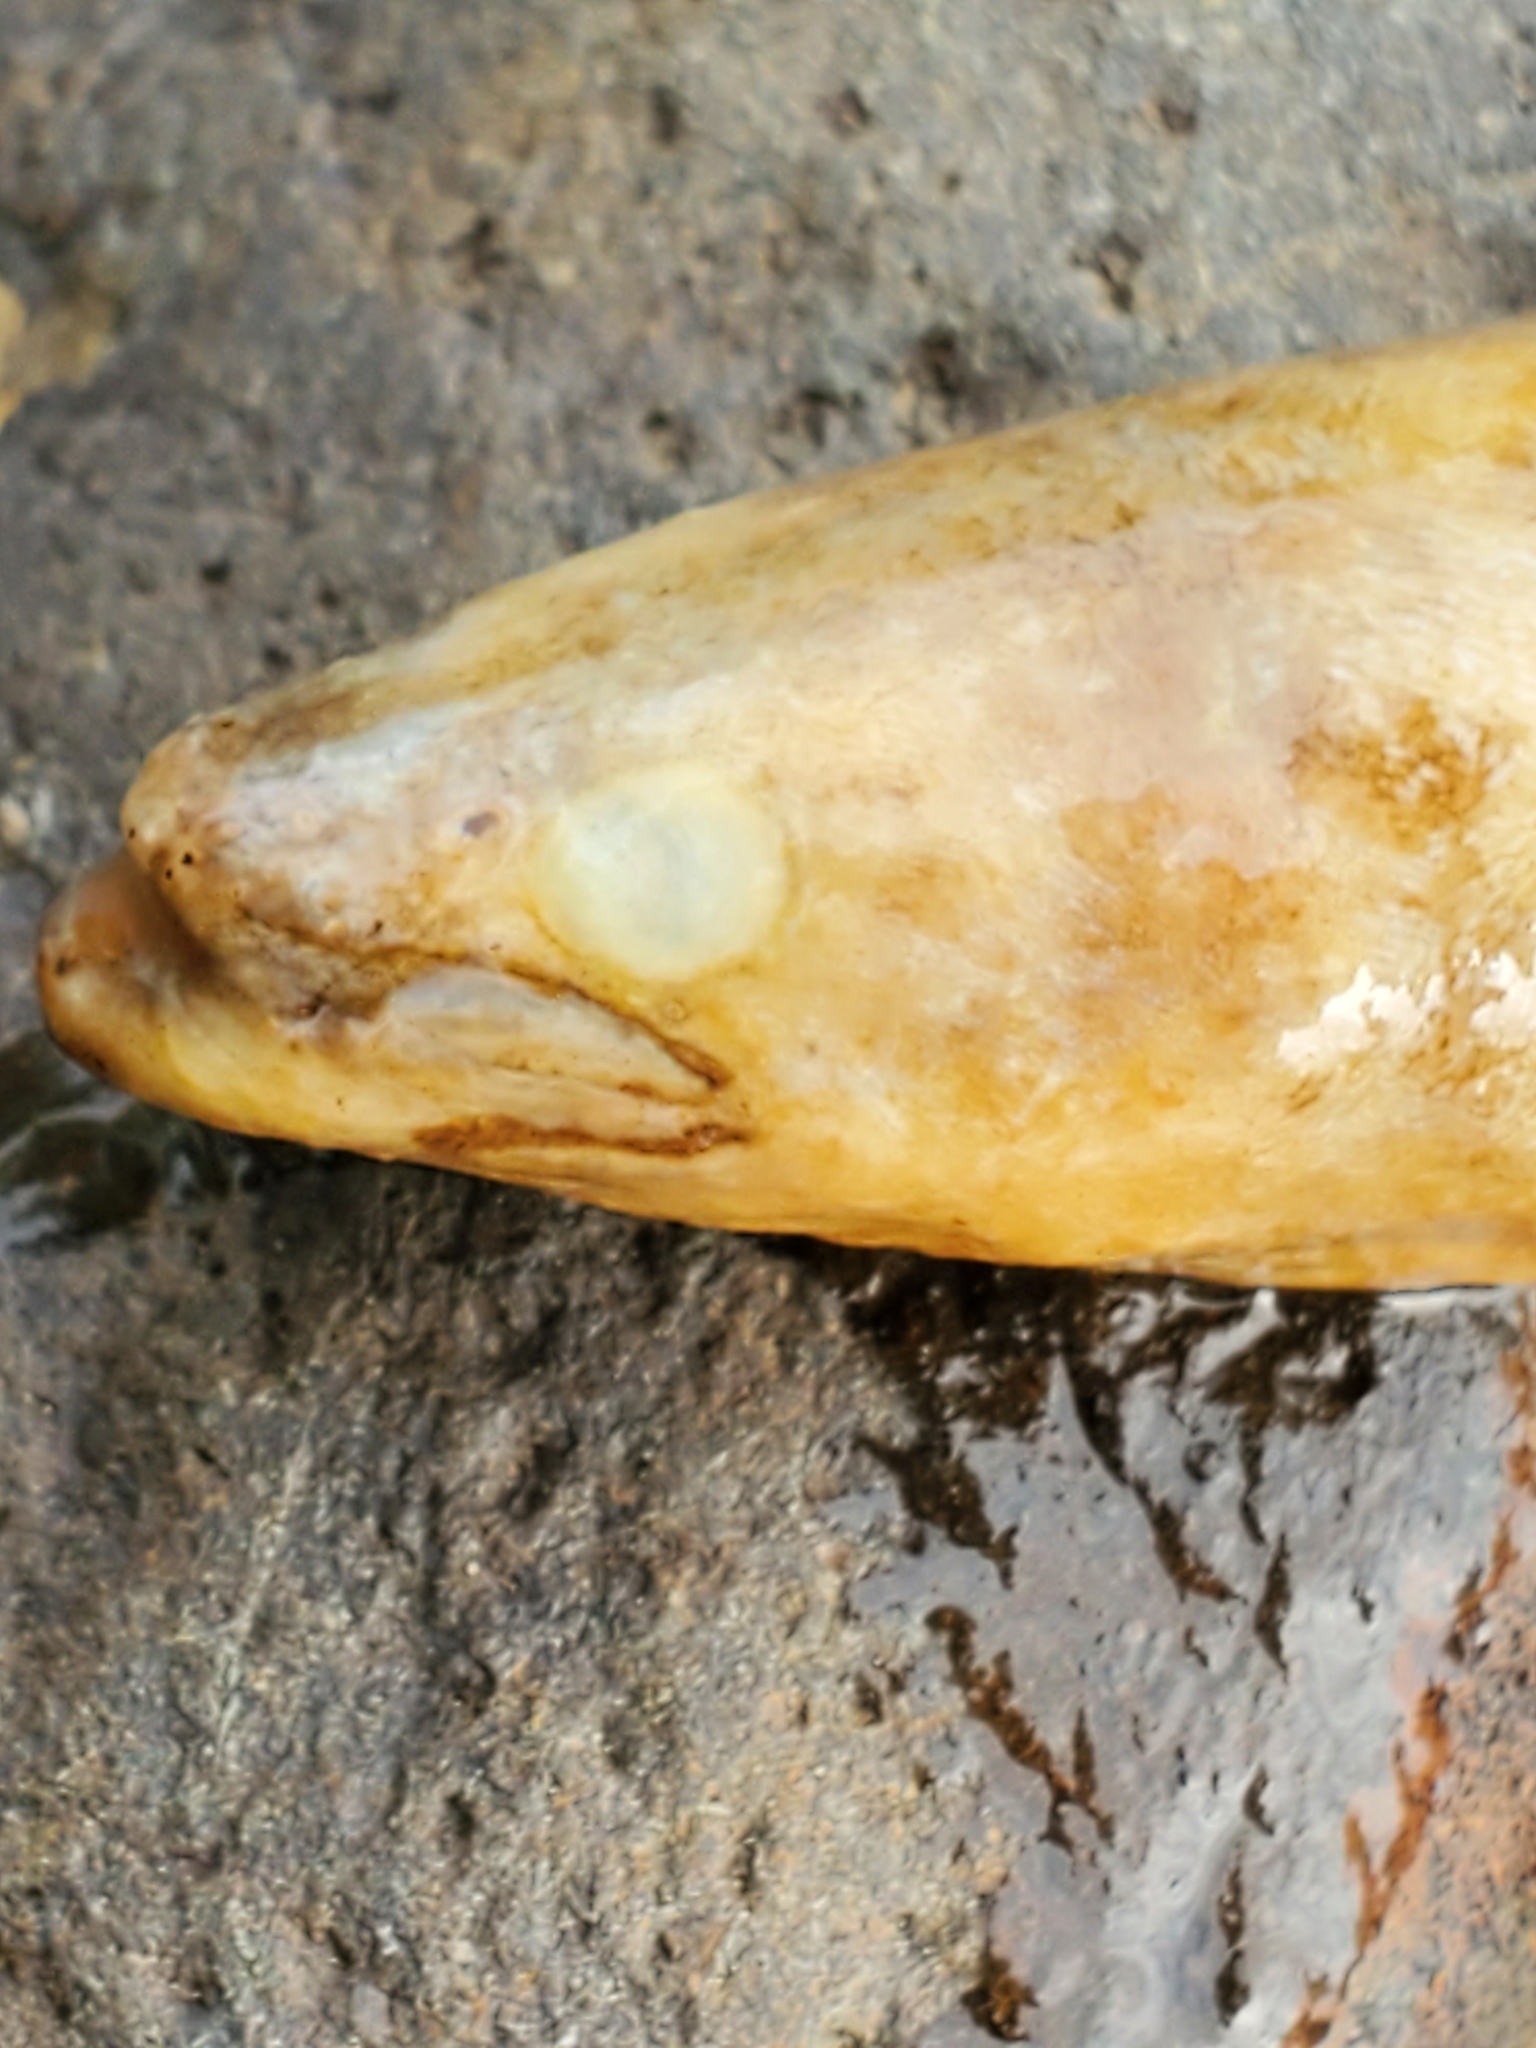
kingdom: Animalia
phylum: Chordata
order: Anguilliformes
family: Anguillidae
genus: Anguilla
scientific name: Anguilla rostrata
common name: American eel
